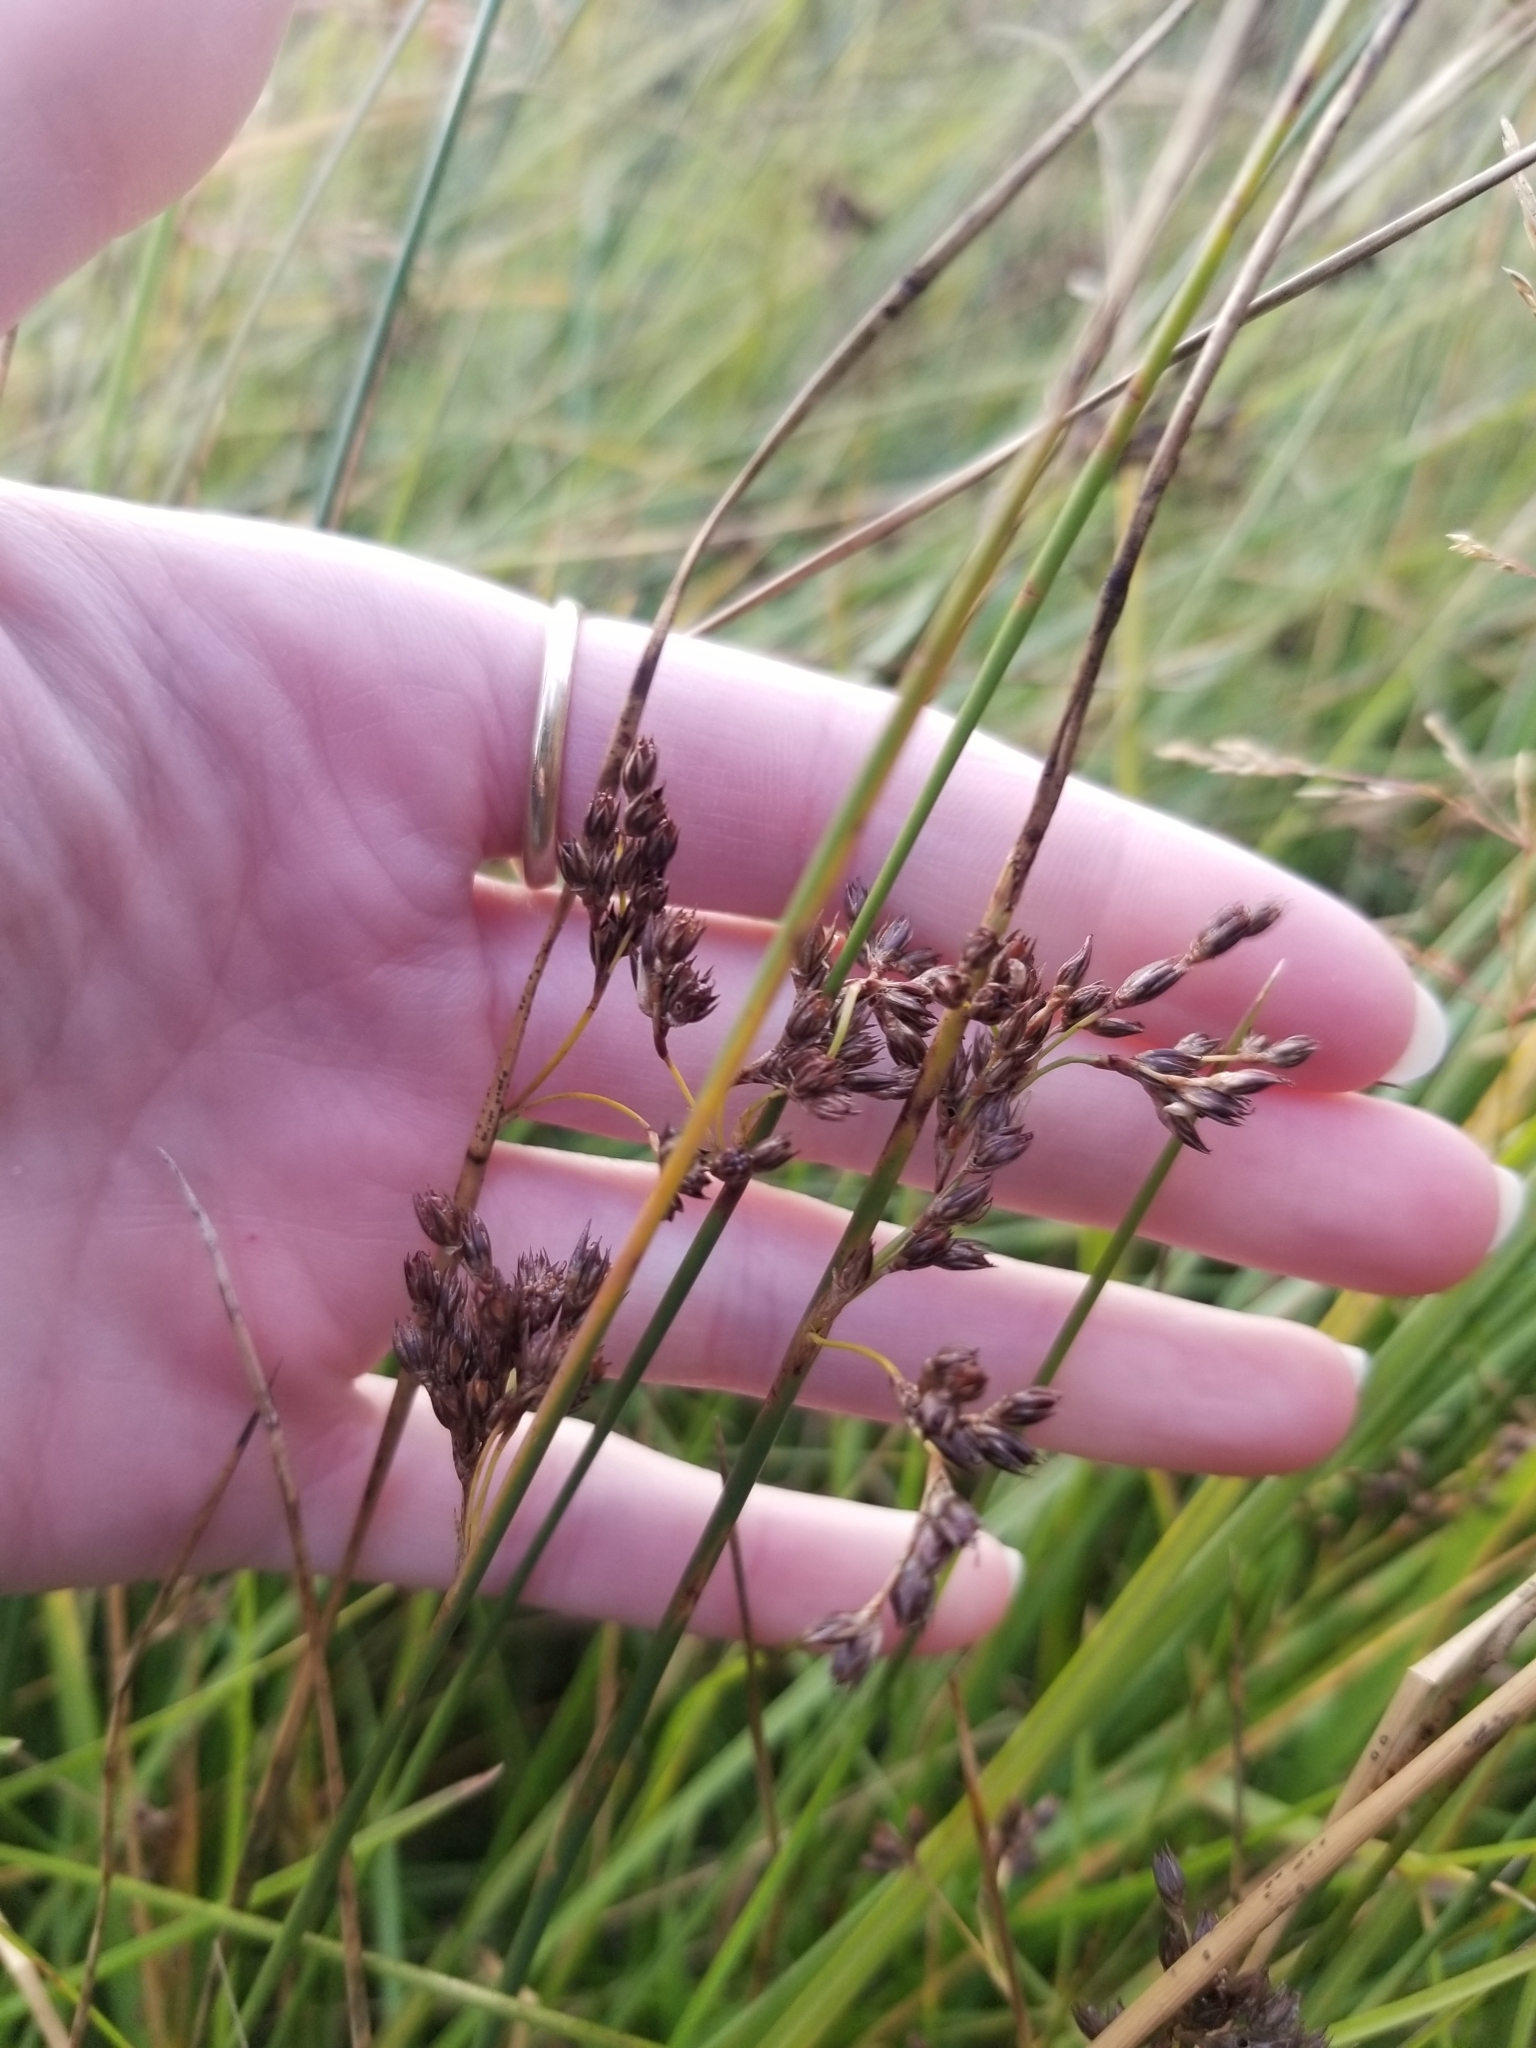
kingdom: Plantae
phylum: Tracheophyta
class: Liliopsida
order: Poales
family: Juncaceae
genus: Juncus
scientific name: Juncus balticus
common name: Baltic rush
